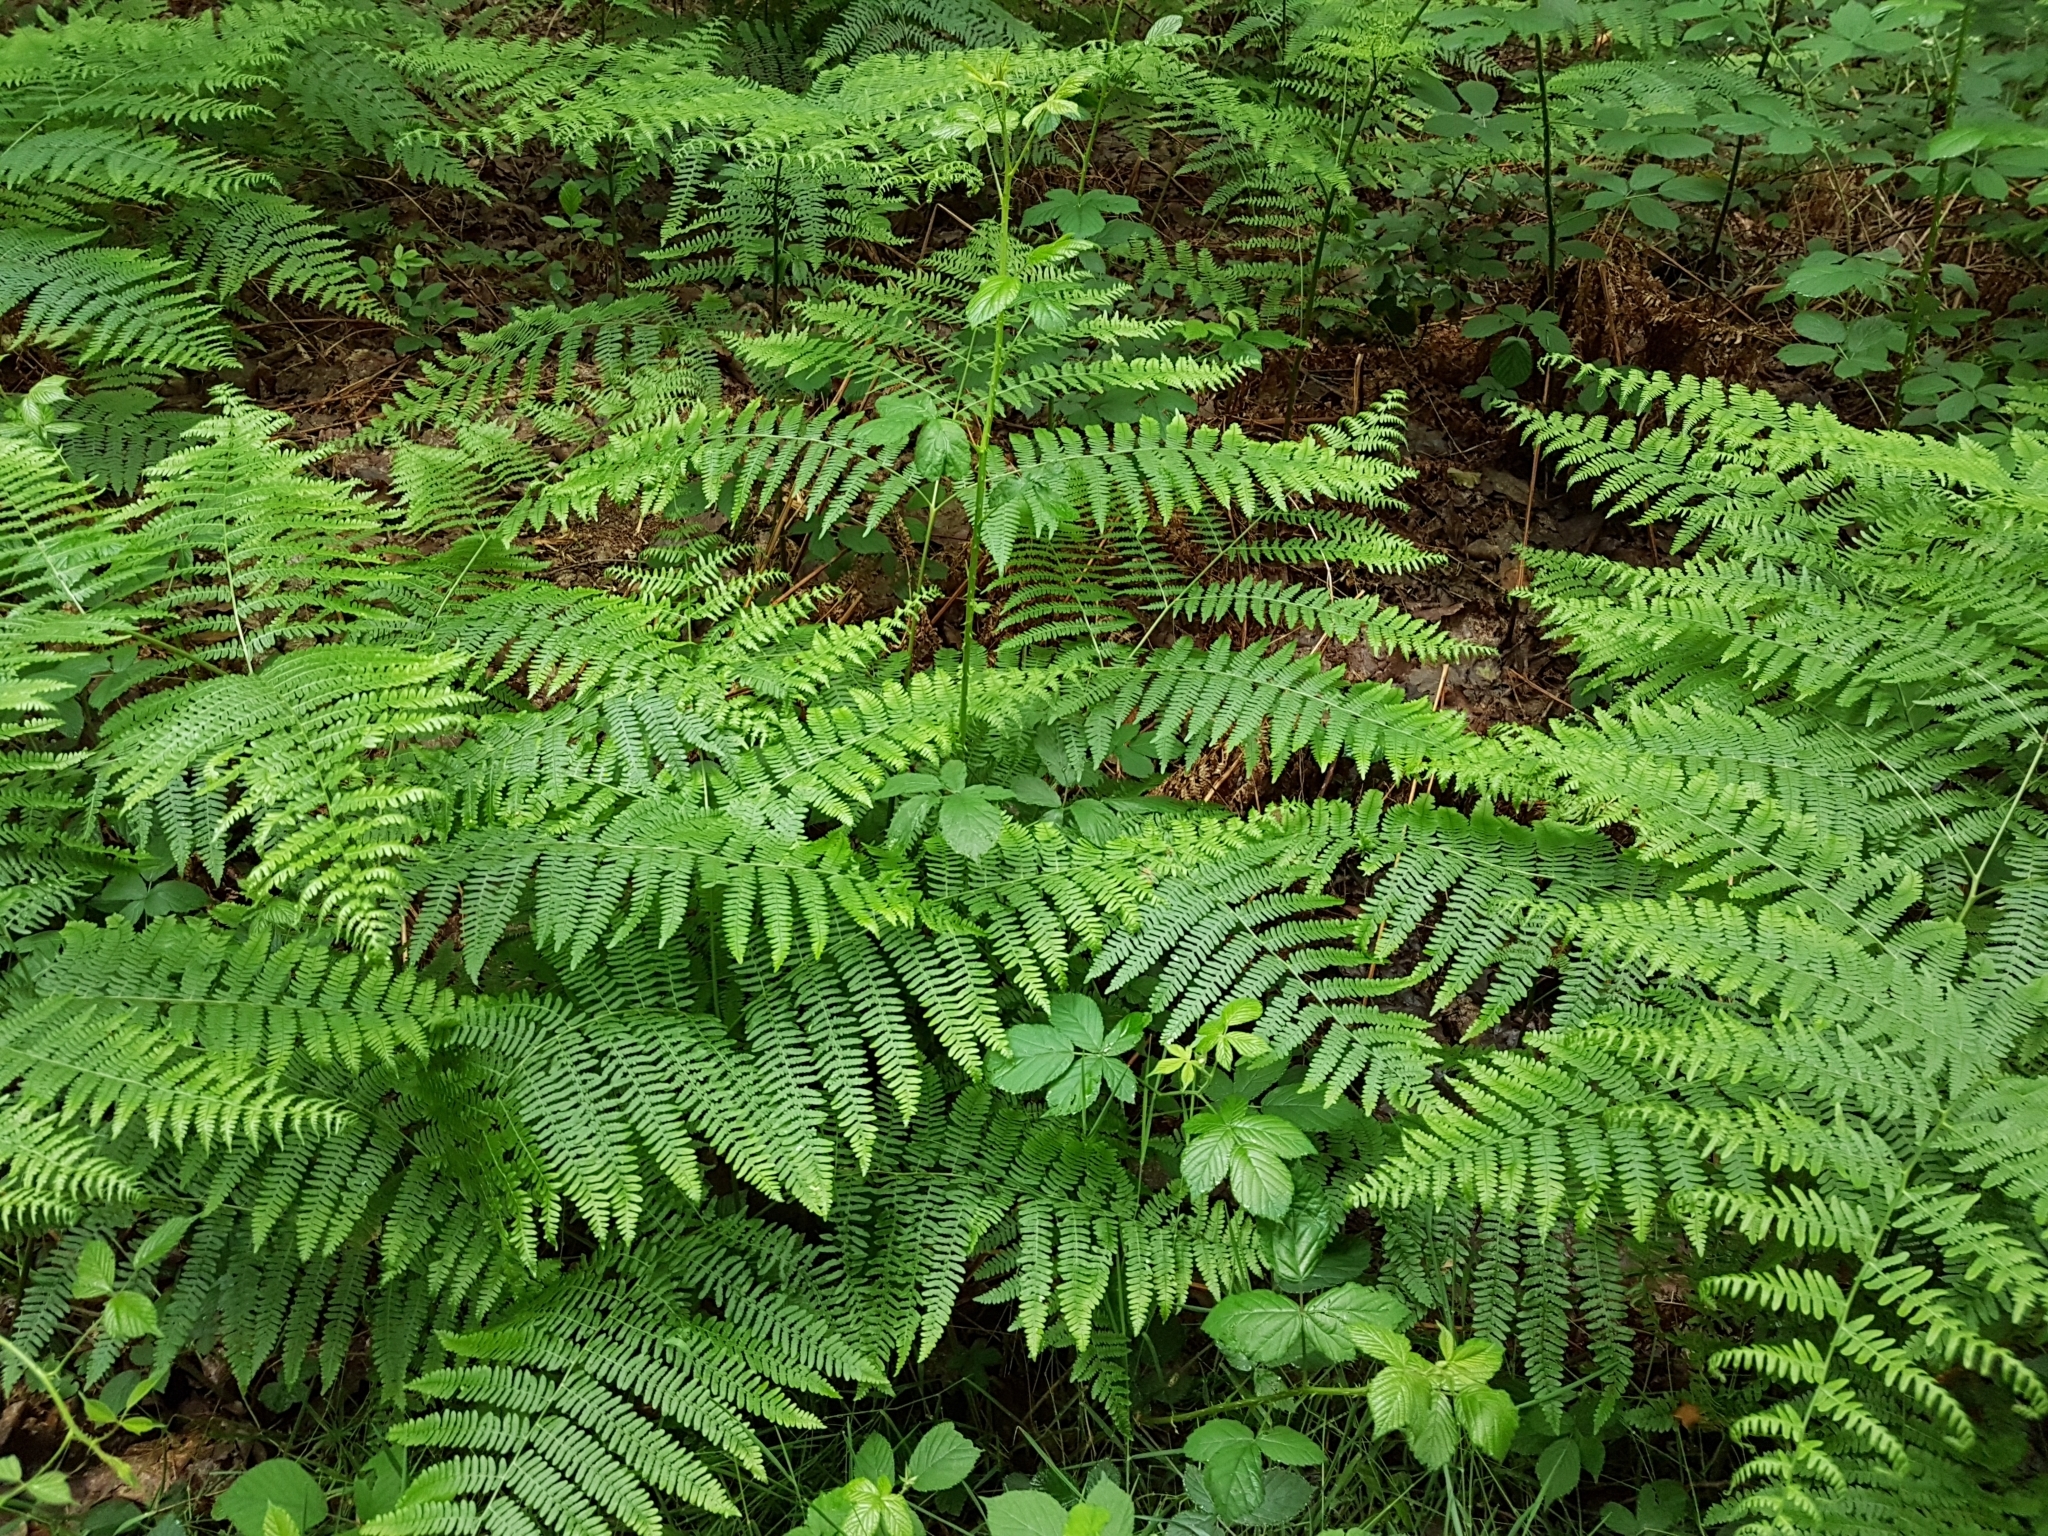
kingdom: Plantae
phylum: Tracheophyta
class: Polypodiopsida
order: Polypodiales
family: Dennstaedtiaceae
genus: Pteridium
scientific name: Pteridium aquilinum
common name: Bracken
